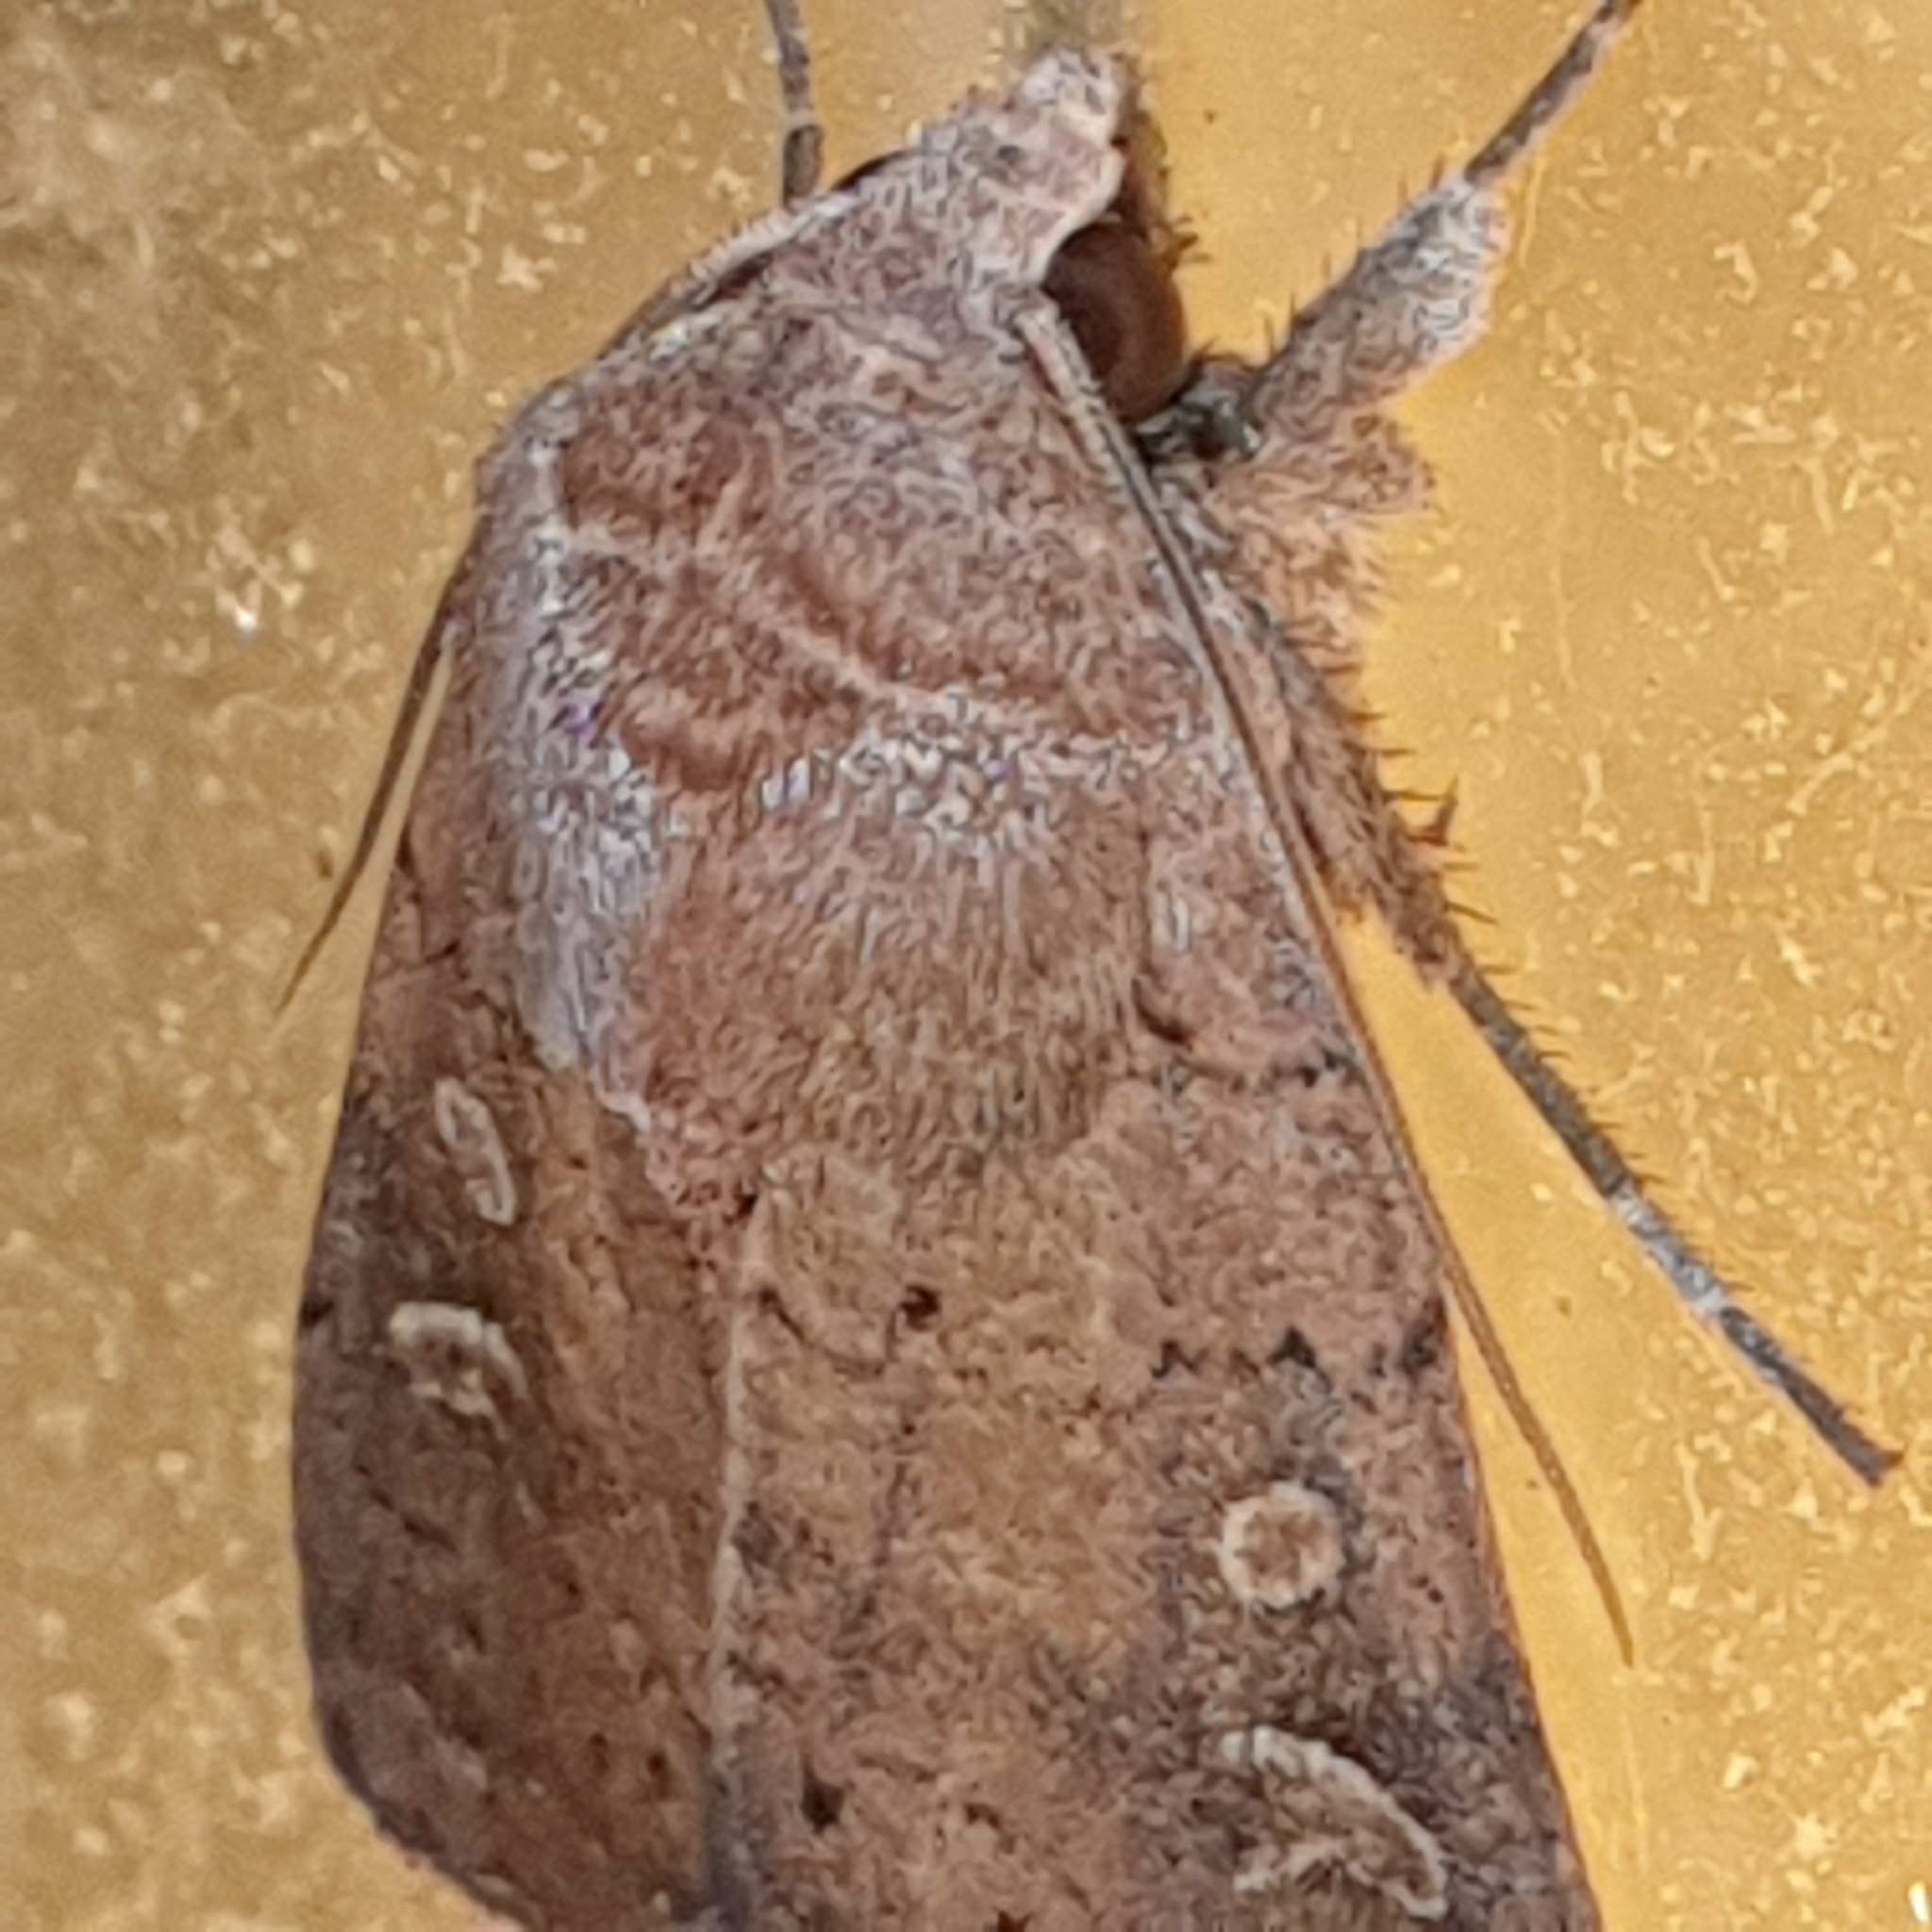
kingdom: Animalia
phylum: Arthropoda
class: Insecta
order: Lepidoptera
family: Noctuidae
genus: Xestia
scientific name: Xestia xanthographa
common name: Square-spot rustic
